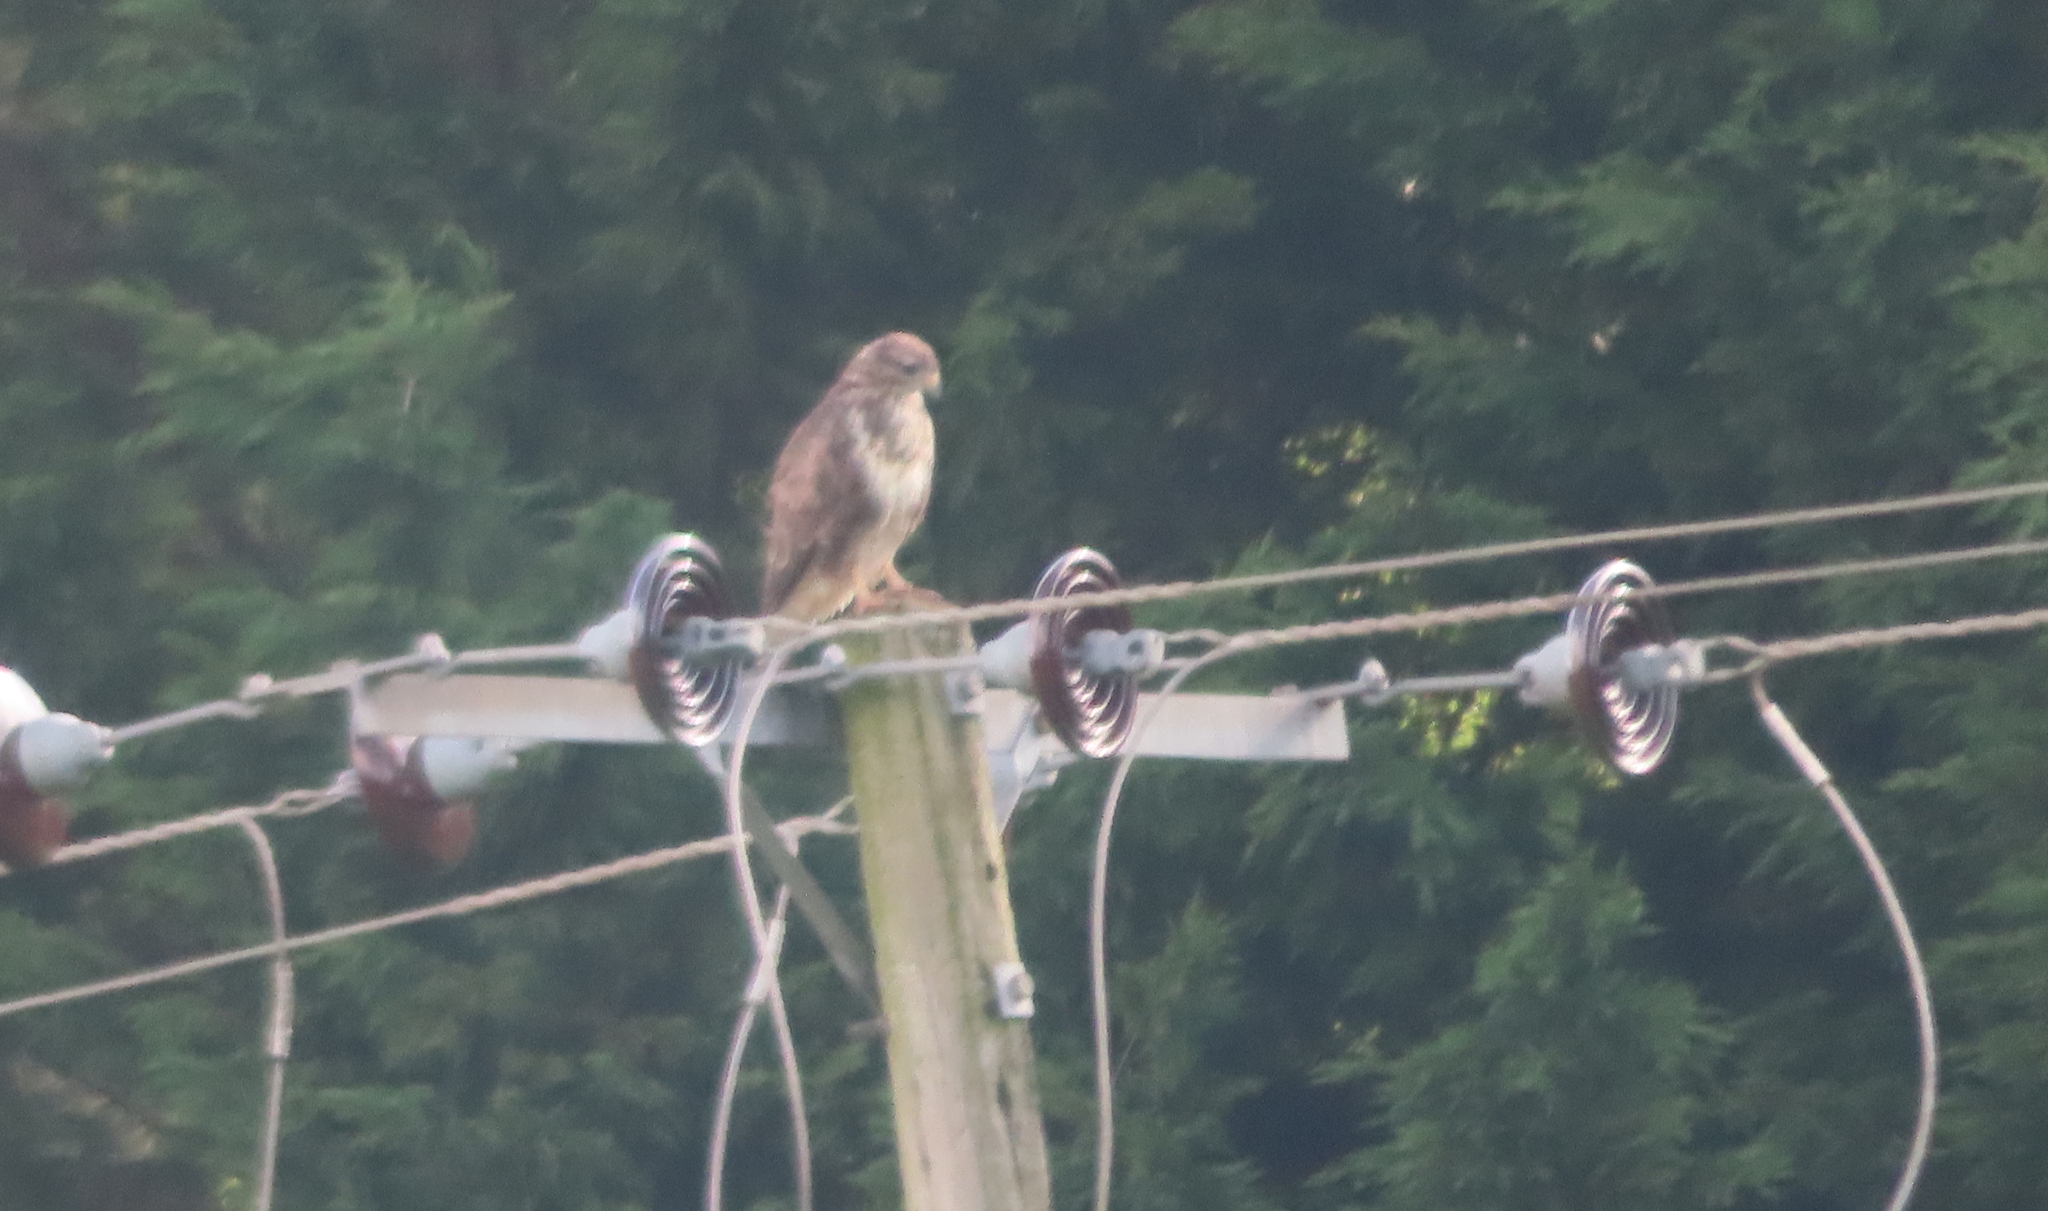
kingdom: Animalia
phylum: Chordata
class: Aves
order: Accipitriformes
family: Accipitridae
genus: Buteo
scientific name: Buteo buteo
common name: Common buzzard
